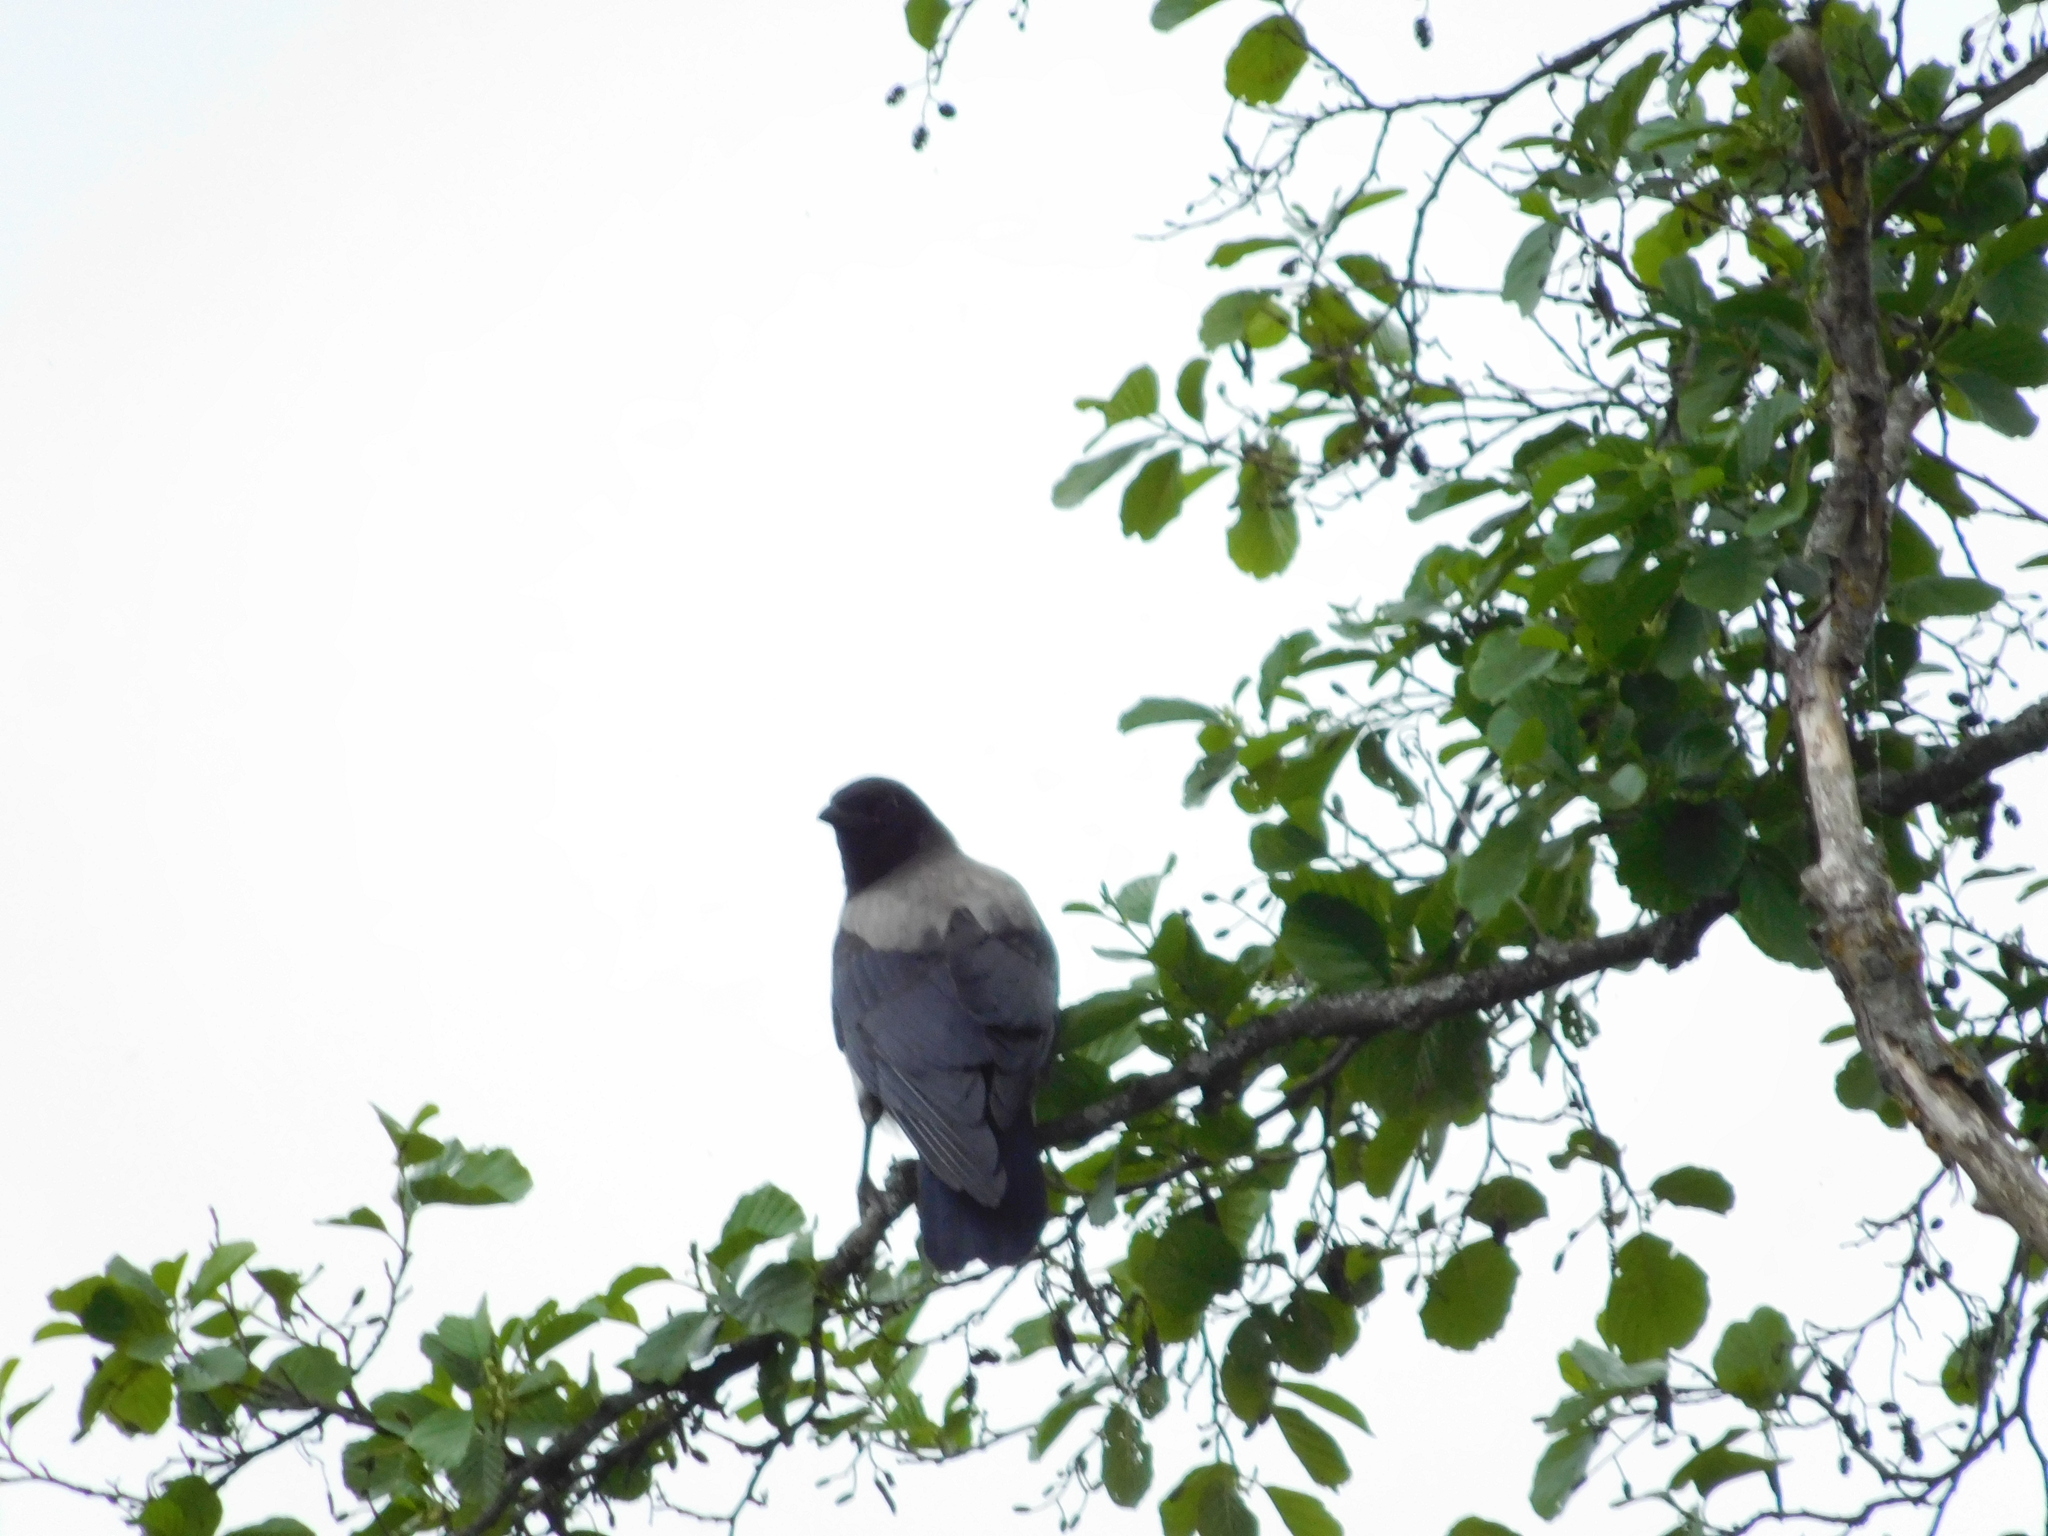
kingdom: Animalia
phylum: Chordata
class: Aves
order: Passeriformes
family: Corvidae
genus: Corvus
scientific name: Corvus cornix
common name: Hooded crow
